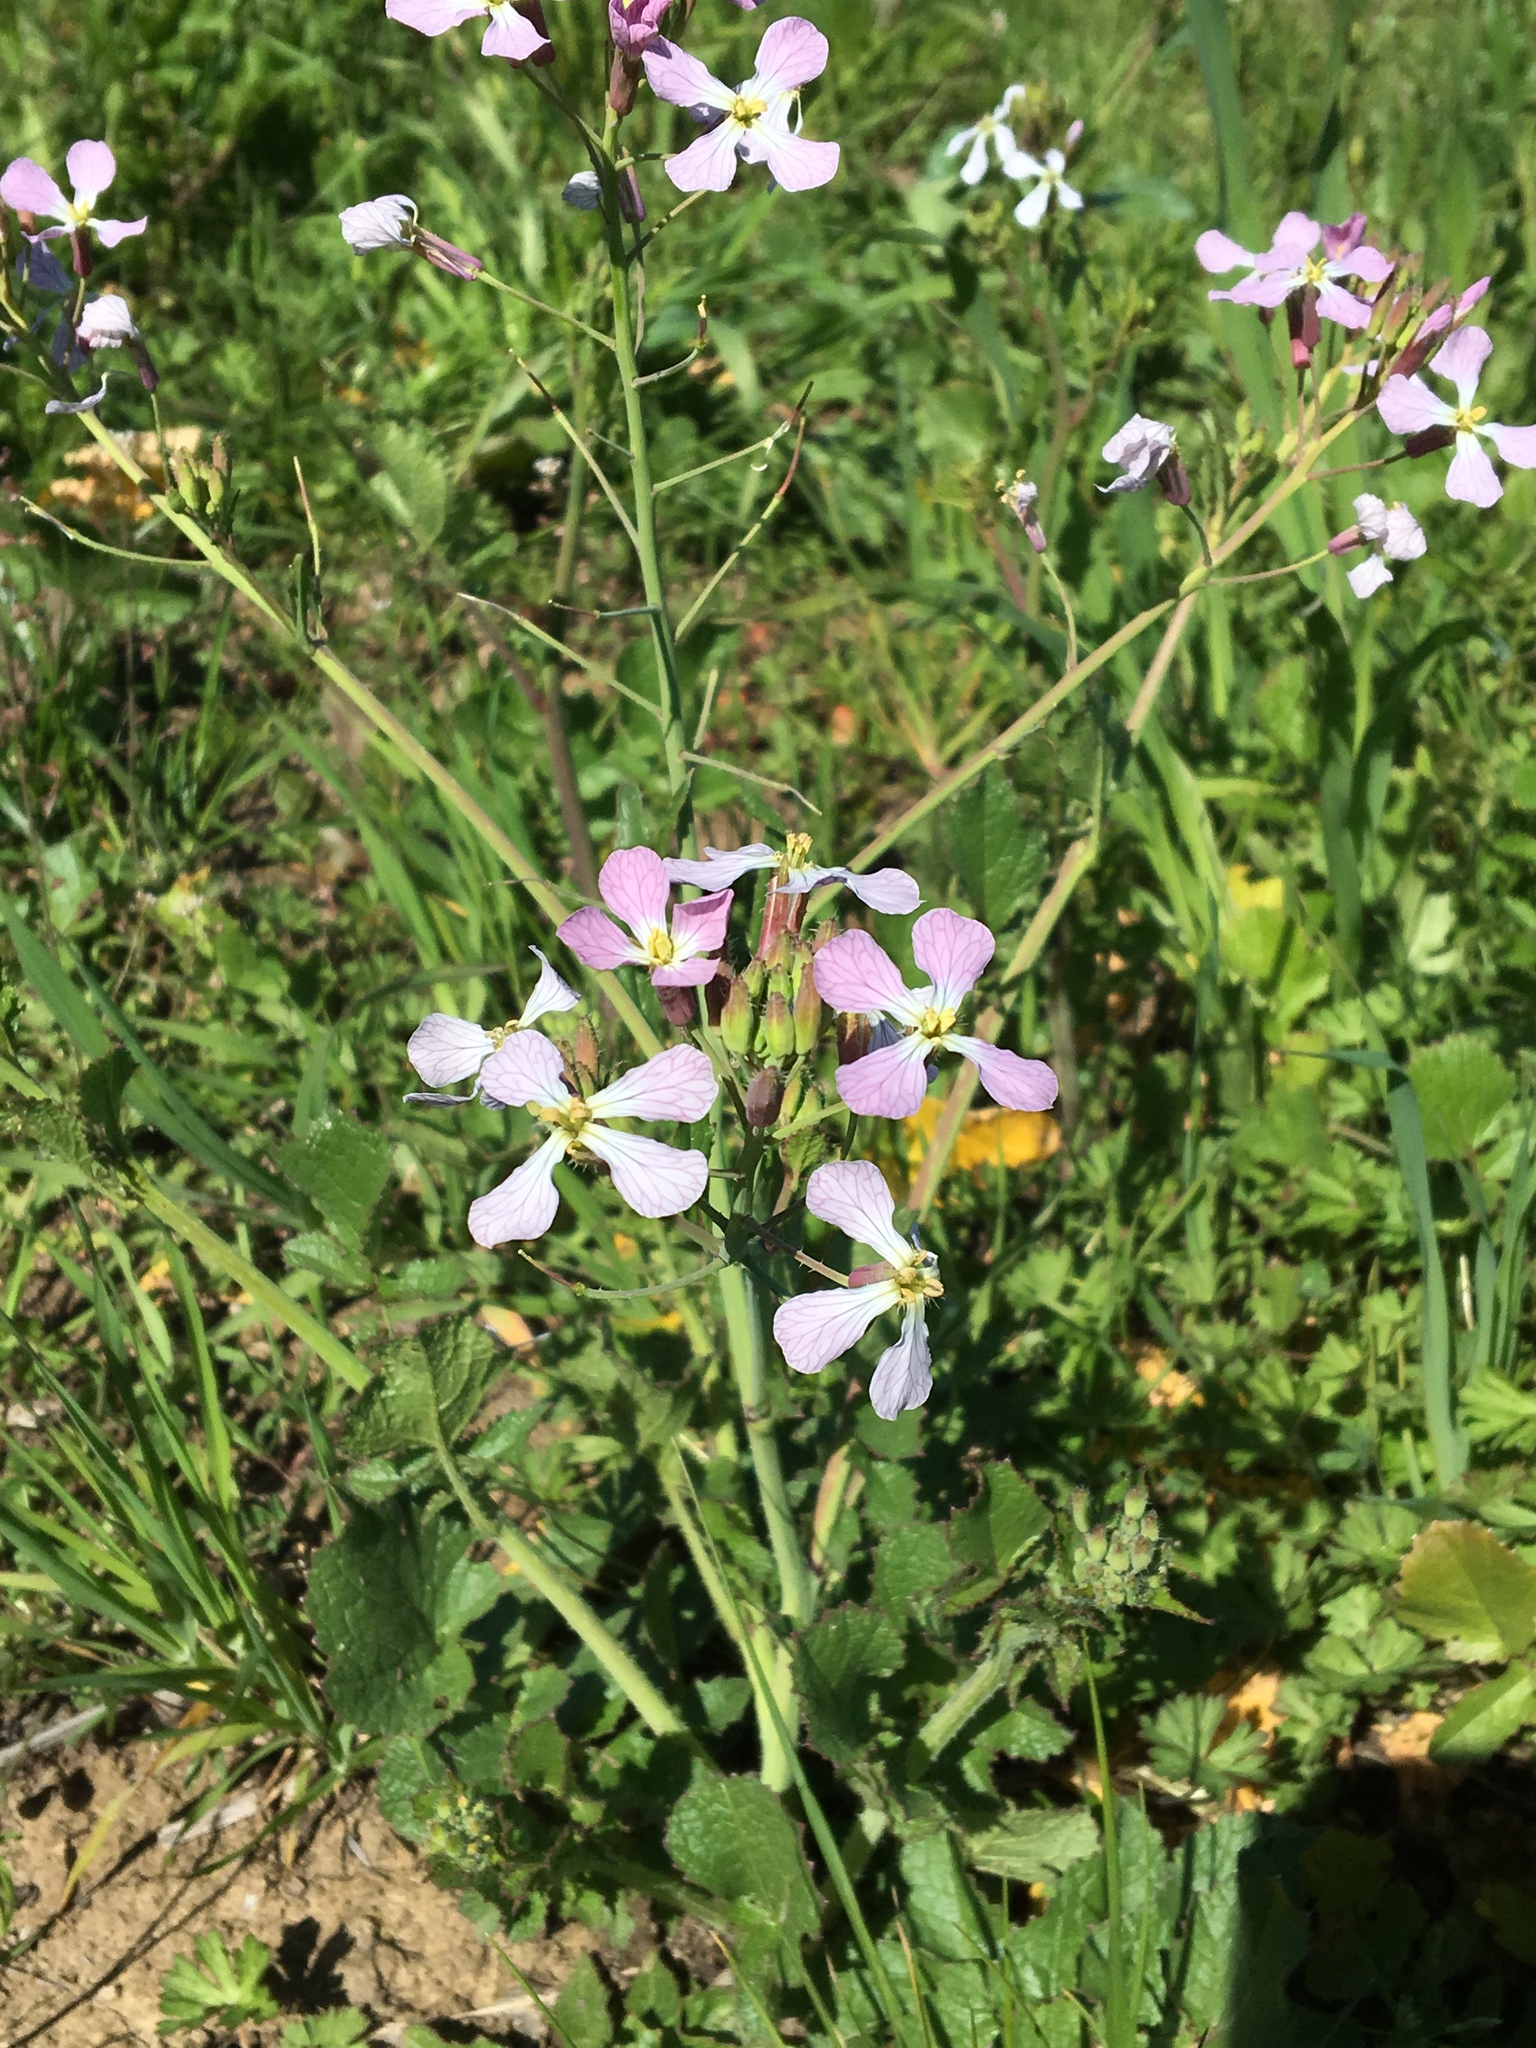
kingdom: Plantae
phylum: Tracheophyta
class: Magnoliopsida
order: Brassicales
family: Brassicaceae
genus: Raphanus
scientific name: Raphanus sativus
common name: Cultivated radish
